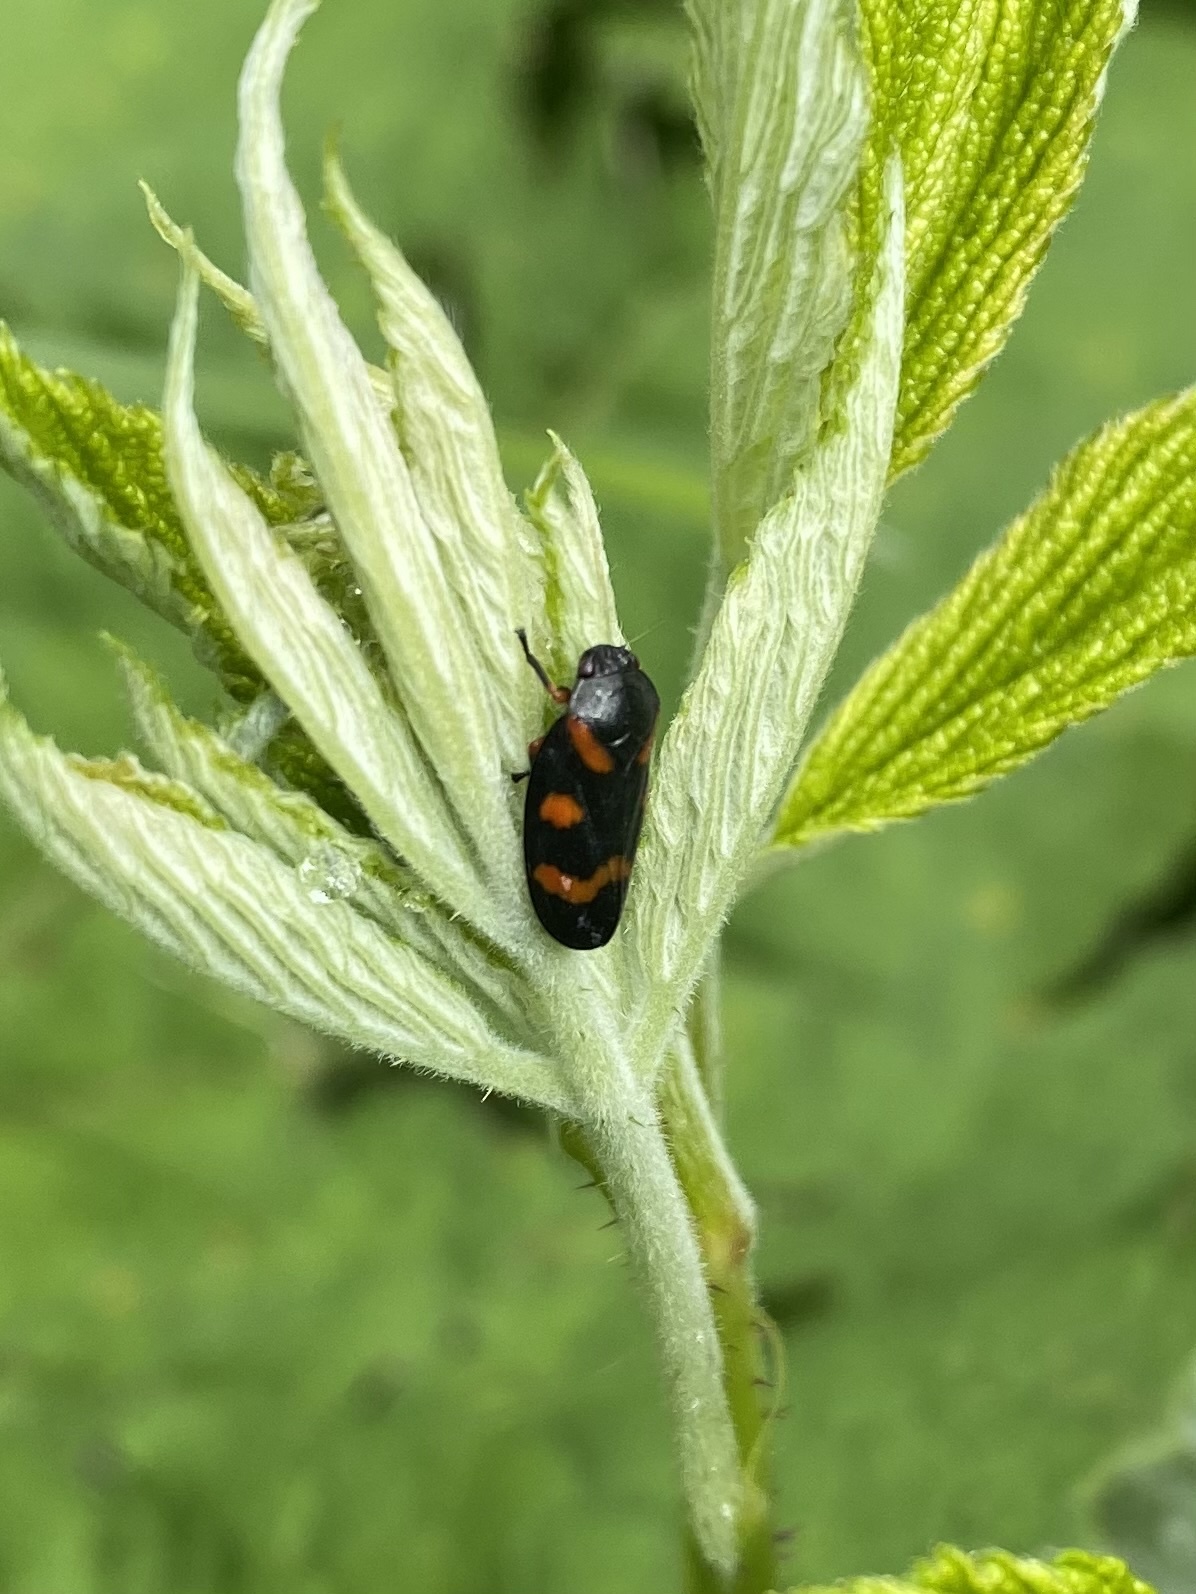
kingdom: Animalia
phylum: Arthropoda
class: Insecta
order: Hemiptera
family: Cercopidae
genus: Cercopis
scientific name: Cercopis intermedia
